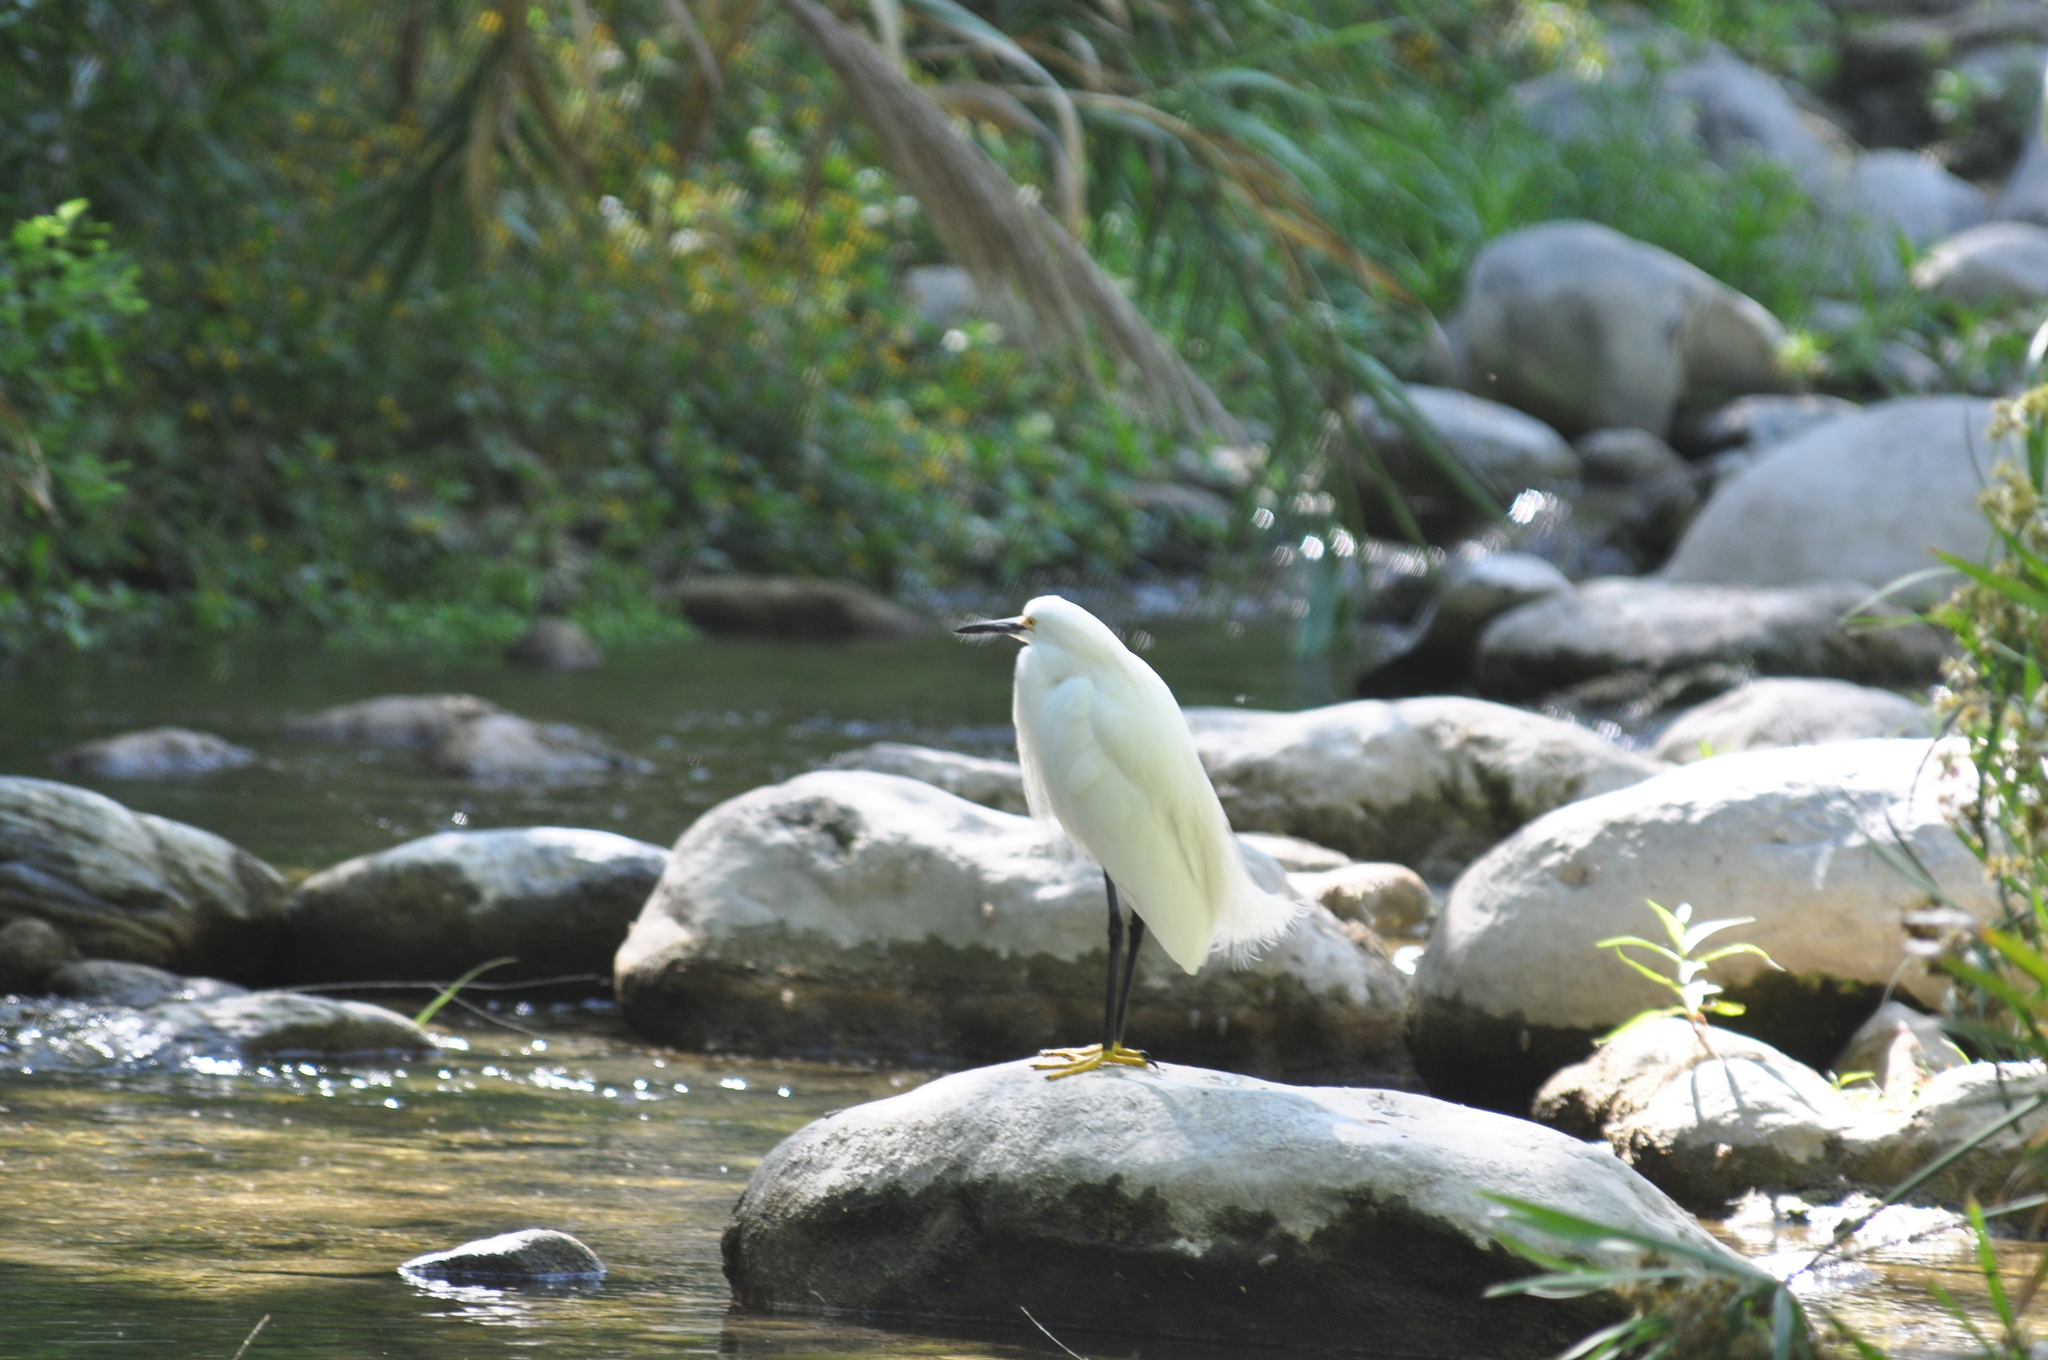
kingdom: Animalia
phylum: Chordata
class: Aves
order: Pelecaniformes
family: Ardeidae
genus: Egretta
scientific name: Egretta thula
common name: Snowy egret
